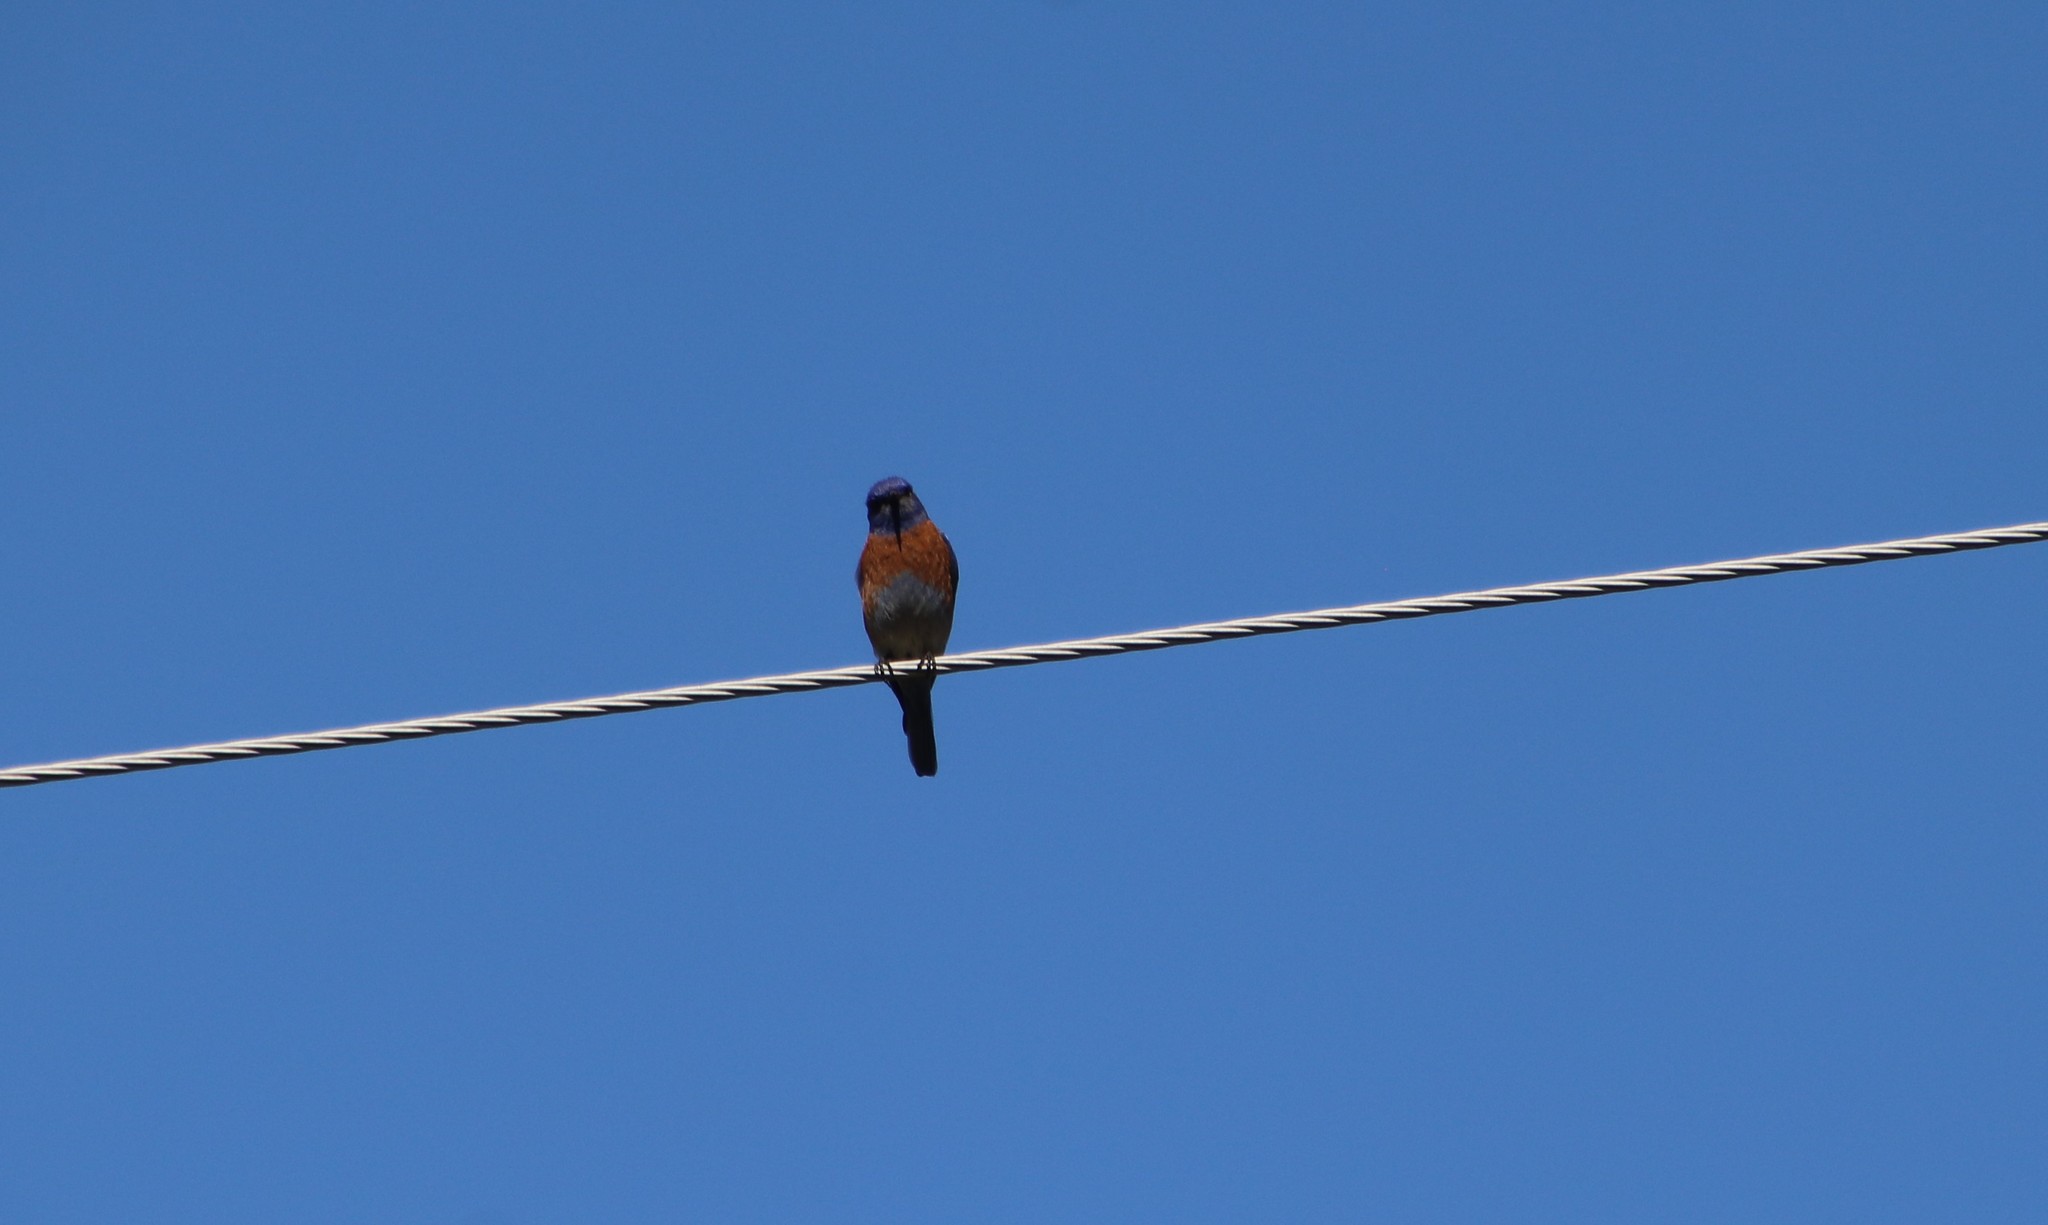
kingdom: Animalia
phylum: Chordata
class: Aves
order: Passeriformes
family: Turdidae
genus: Sialia
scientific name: Sialia mexicana
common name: Western bluebird
